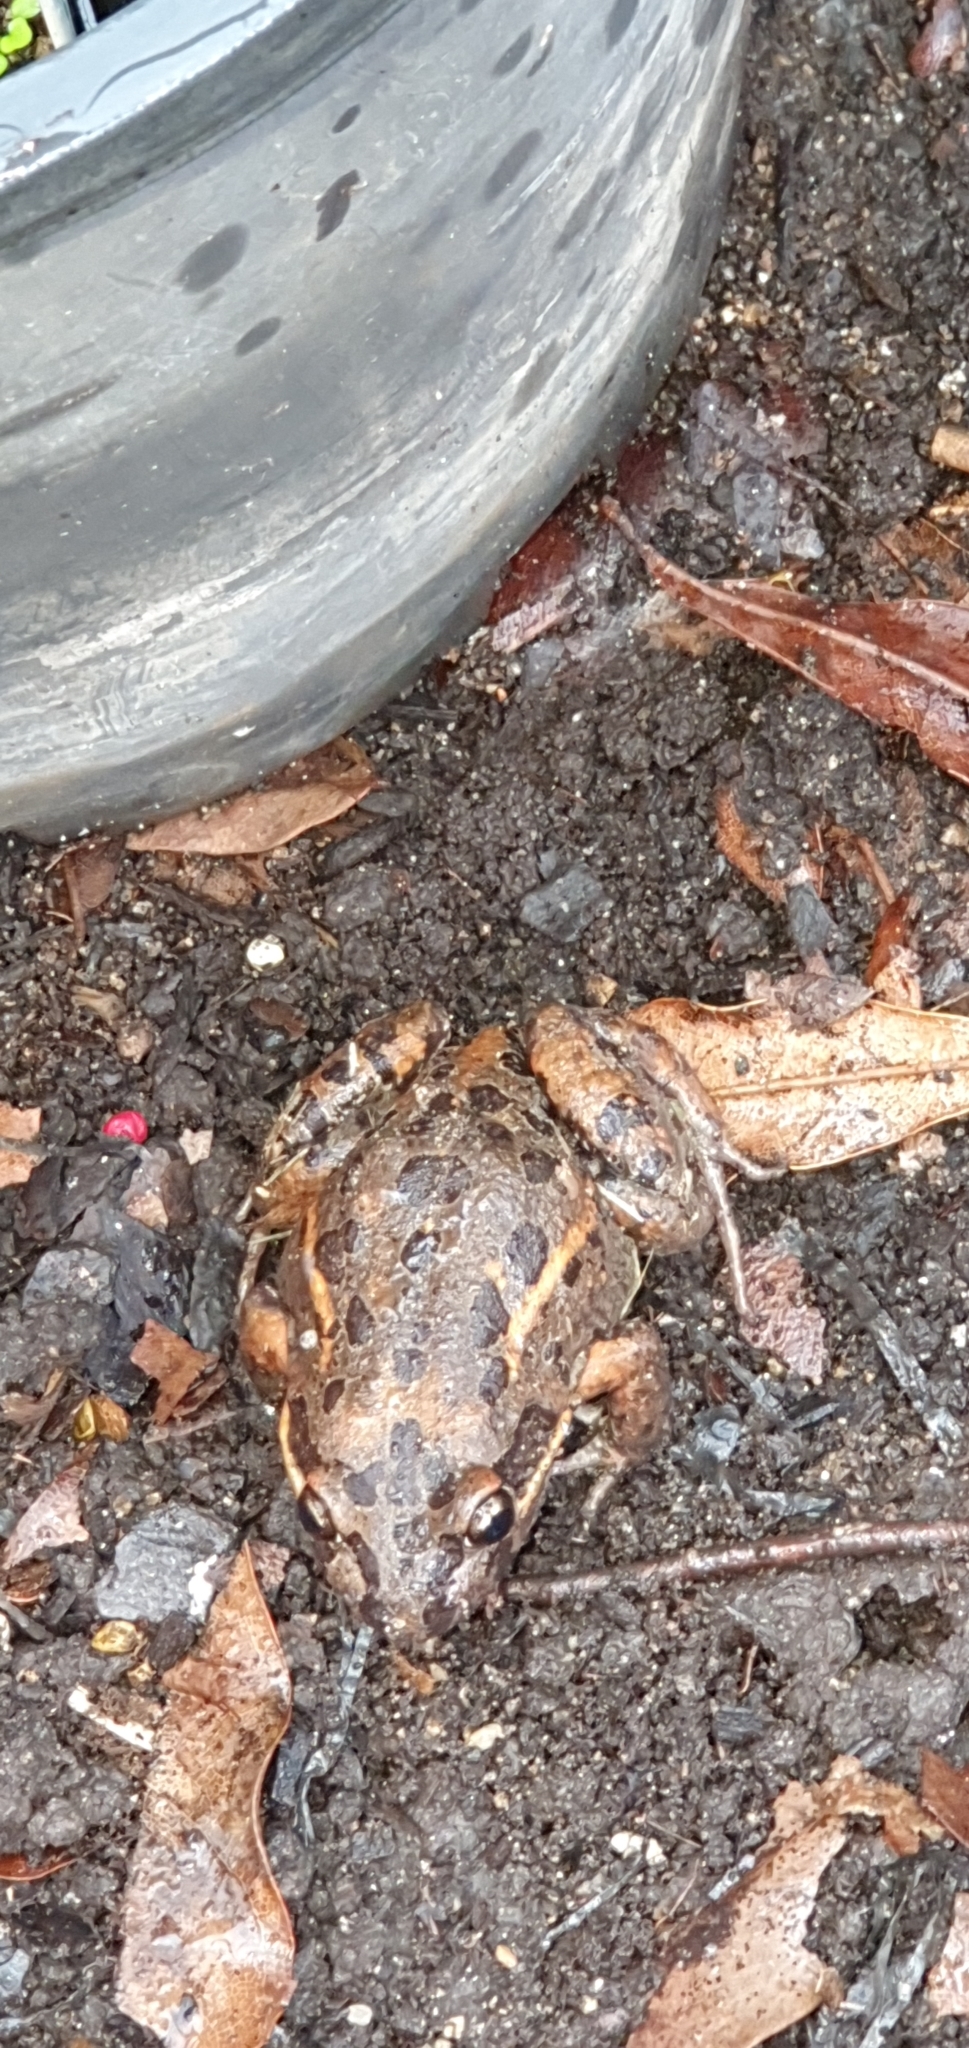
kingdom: Animalia
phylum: Chordata
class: Amphibia
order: Anura
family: Limnodynastidae
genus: Limnodynastes
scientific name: Limnodynastes salmini
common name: Salmon-striped frog
